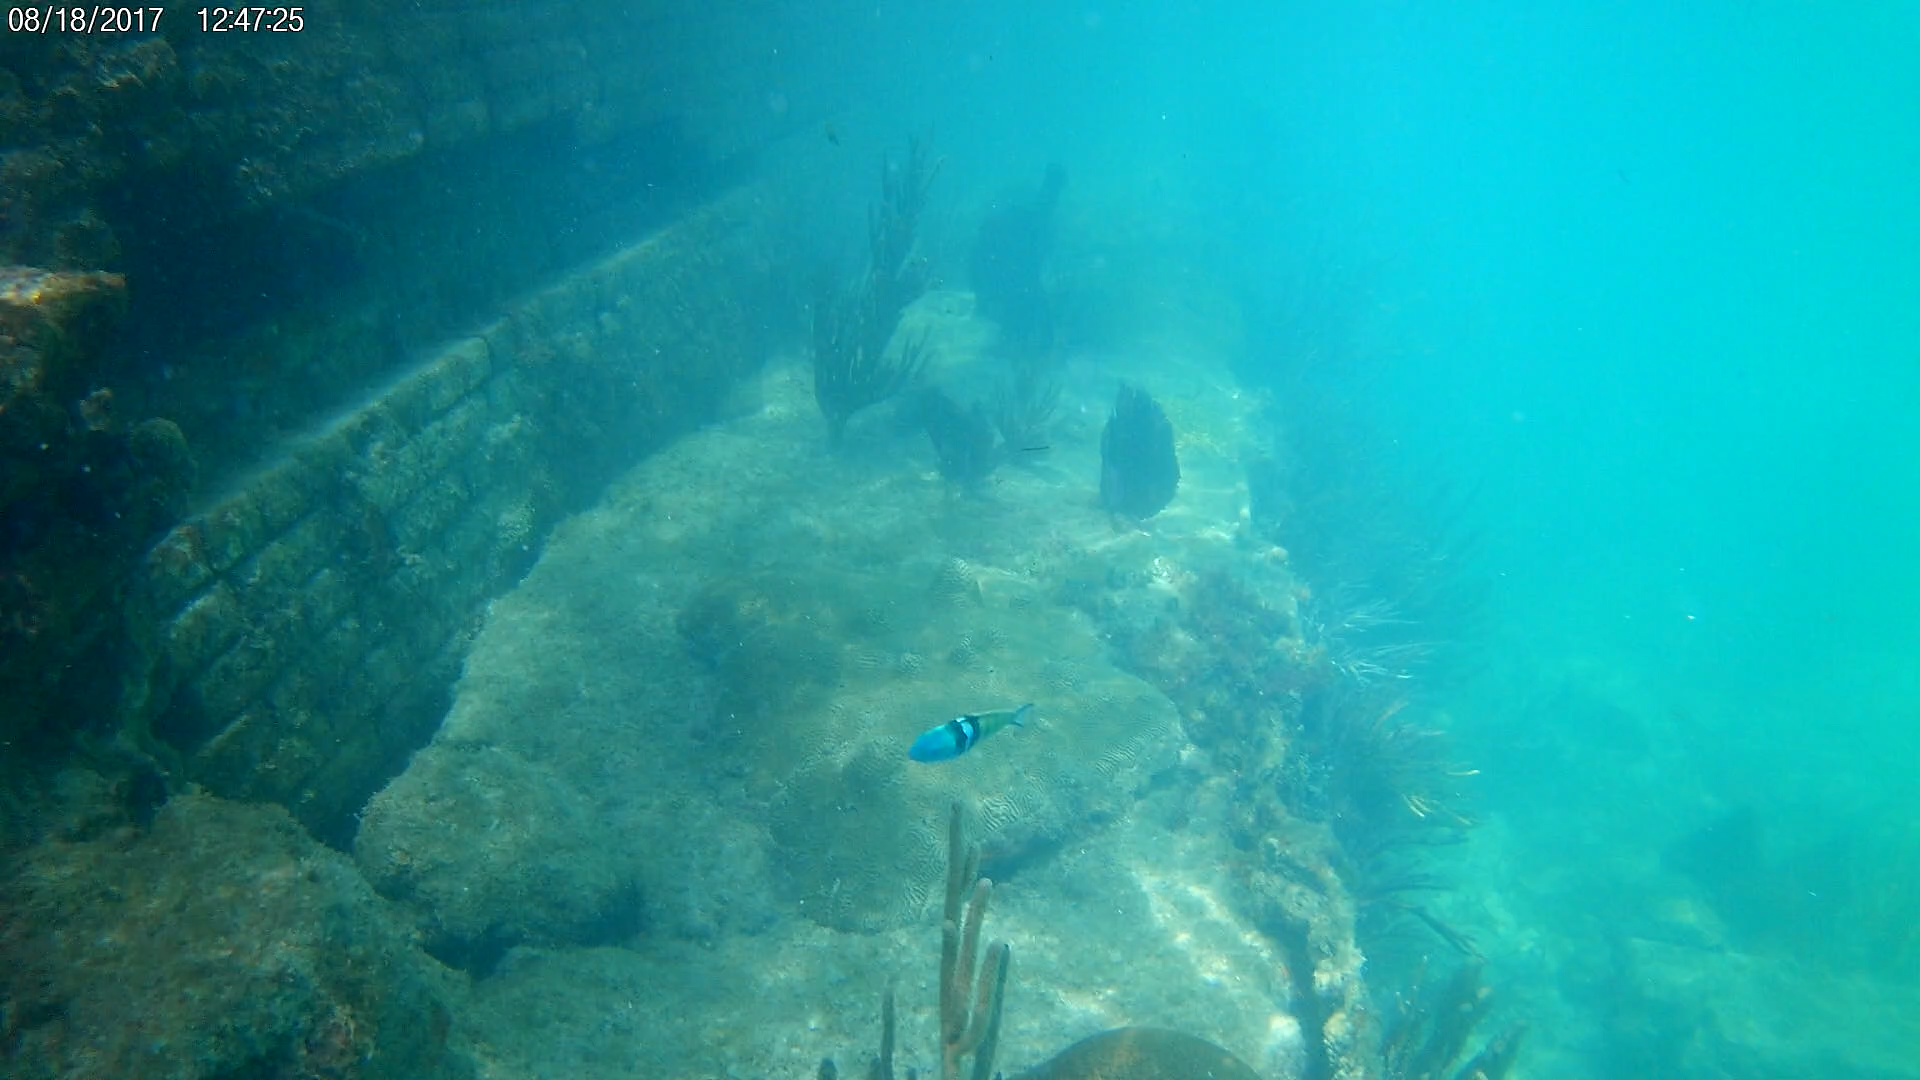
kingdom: Animalia
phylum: Chordata
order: Perciformes
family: Labridae
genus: Thalassoma
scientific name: Thalassoma bifasciatum
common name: Bluehead wrasse
